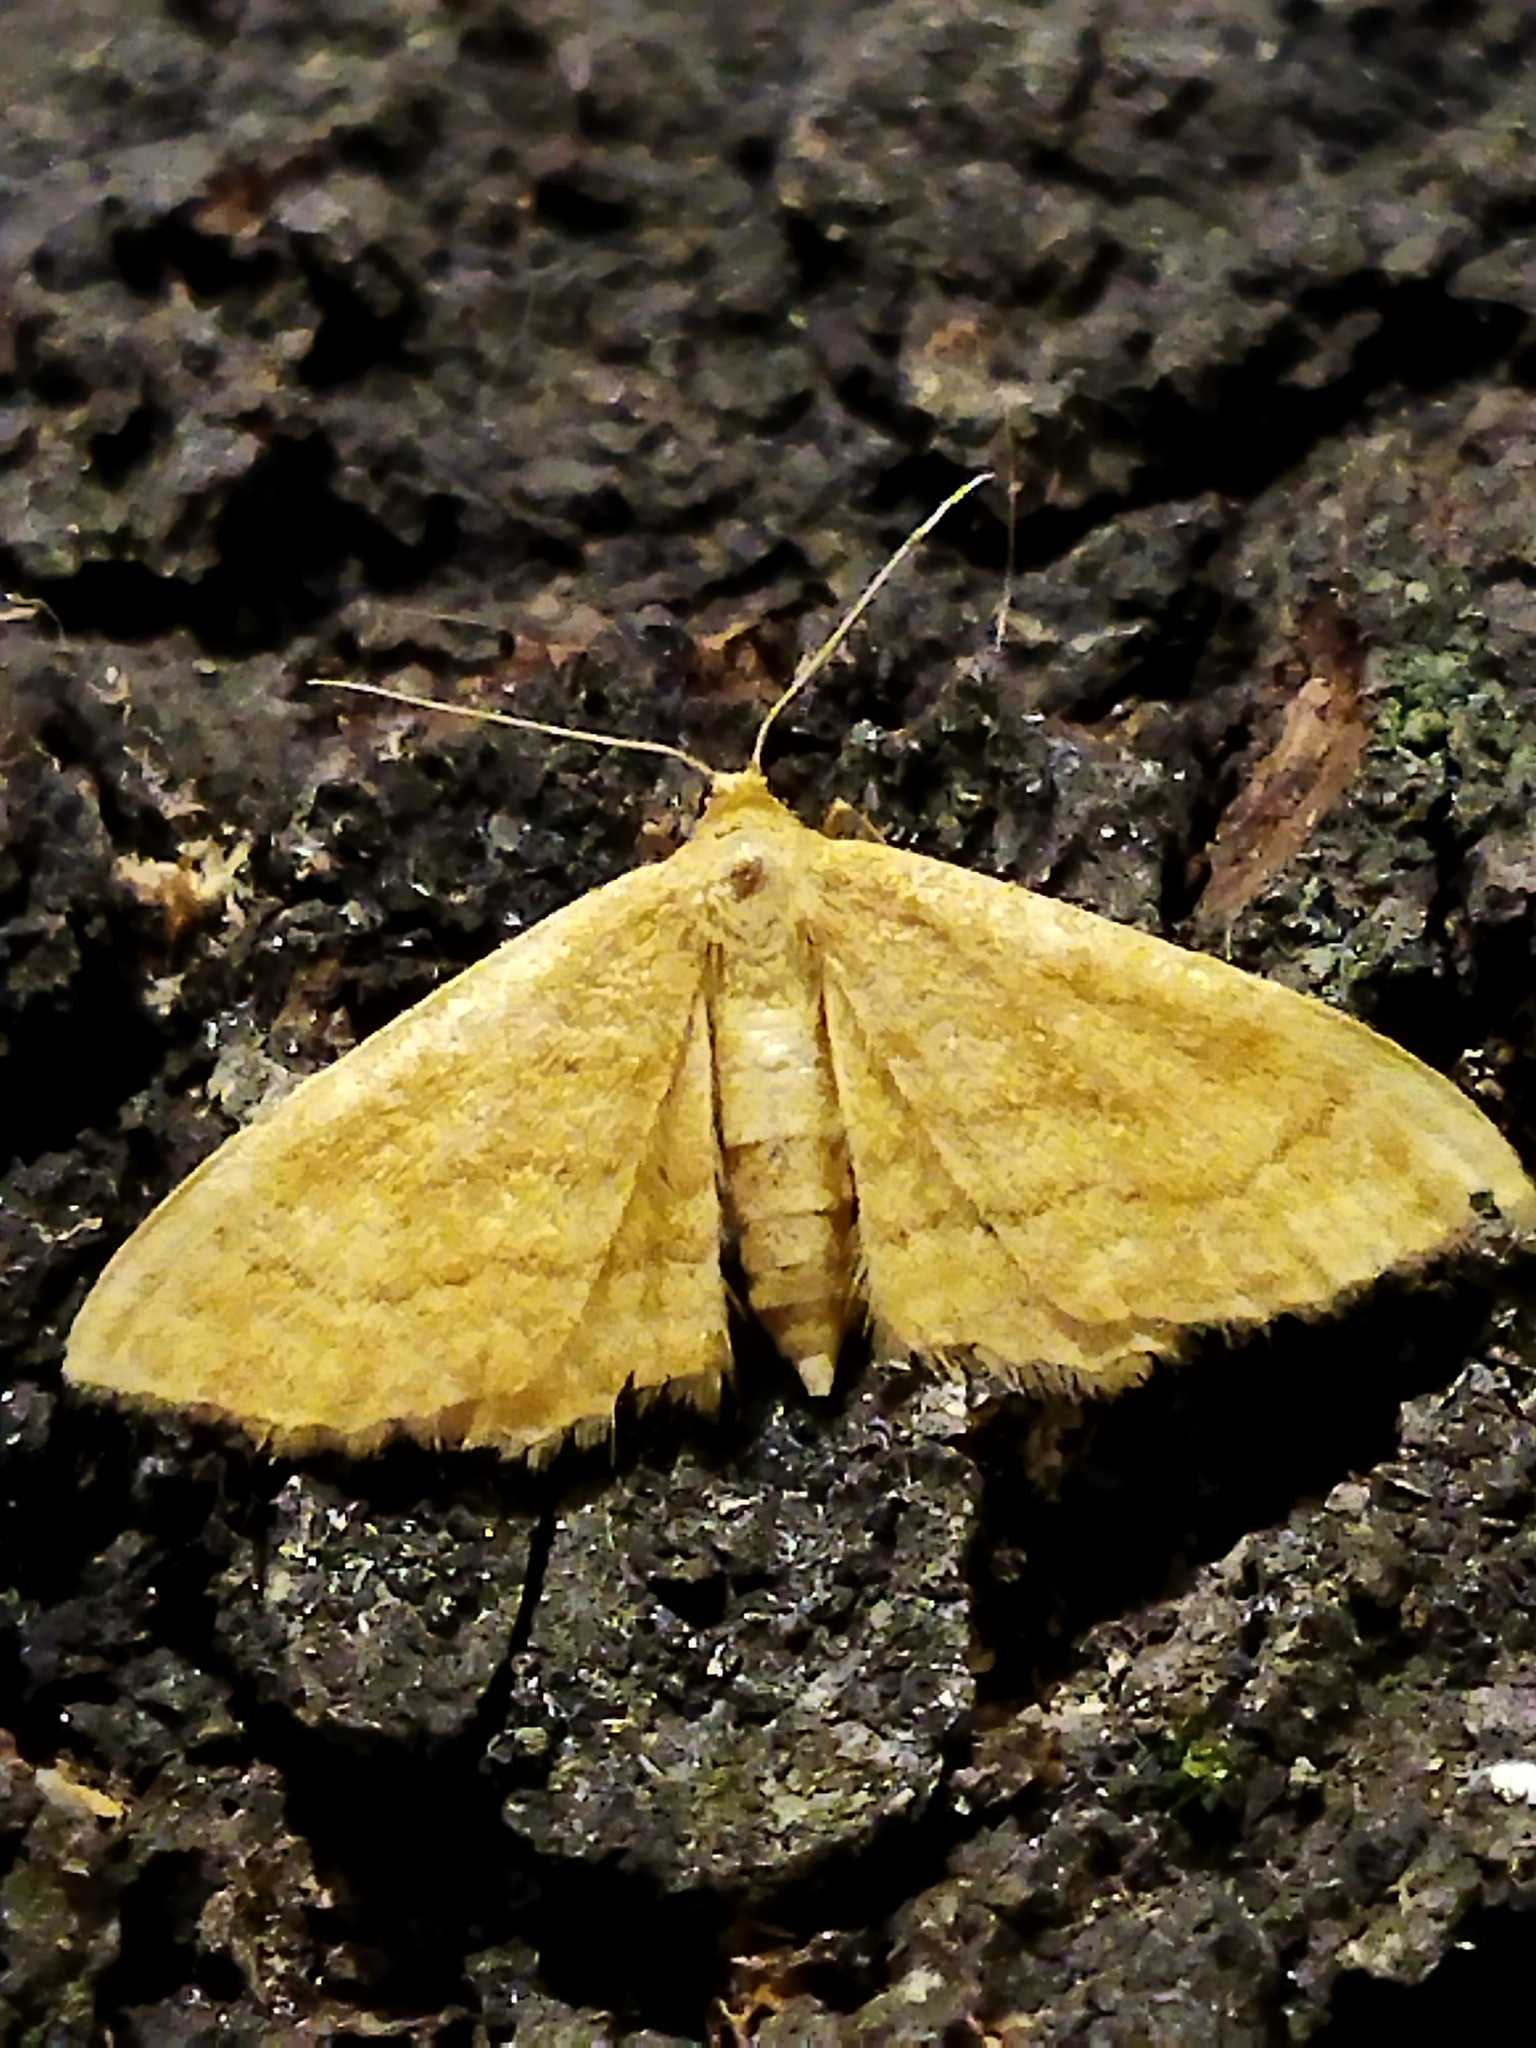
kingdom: Animalia
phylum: Arthropoda
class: Insecta
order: Lepidoptera
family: Geometridae
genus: Idaea
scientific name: Idaea ochrata
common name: Bright wave
